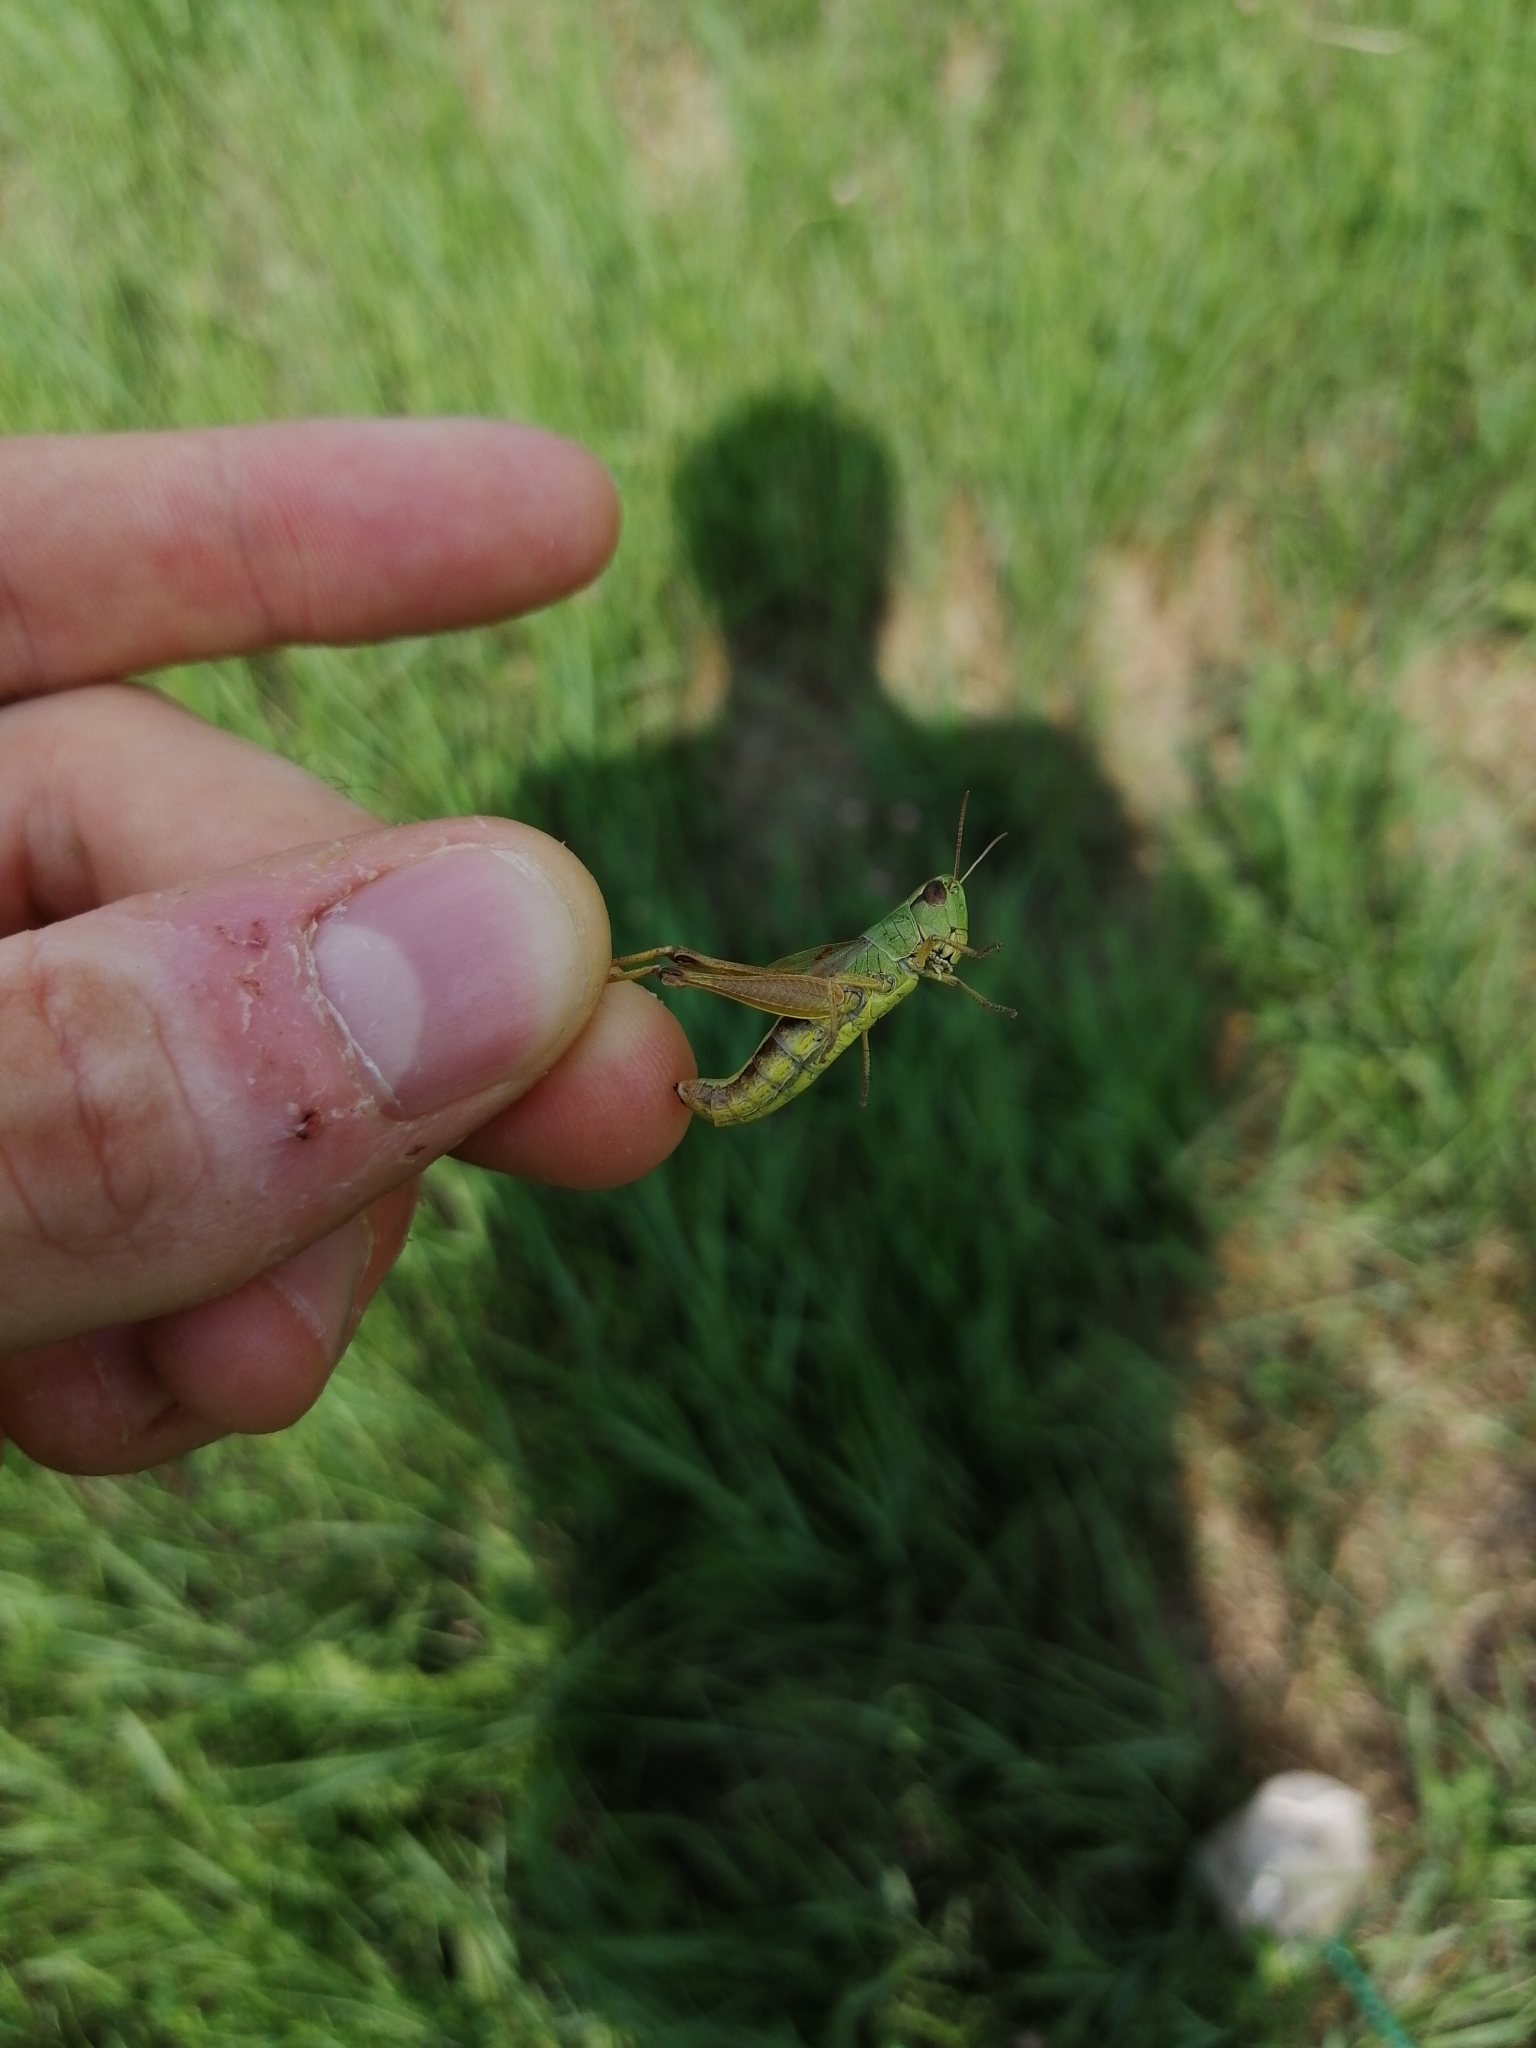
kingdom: Animalia
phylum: Arthropoda
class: Insecta
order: Orthoptera
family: Acrididae
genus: Pseudochorthippus
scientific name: Pseudochorthippus parallelus
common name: Meadow grasshopper
